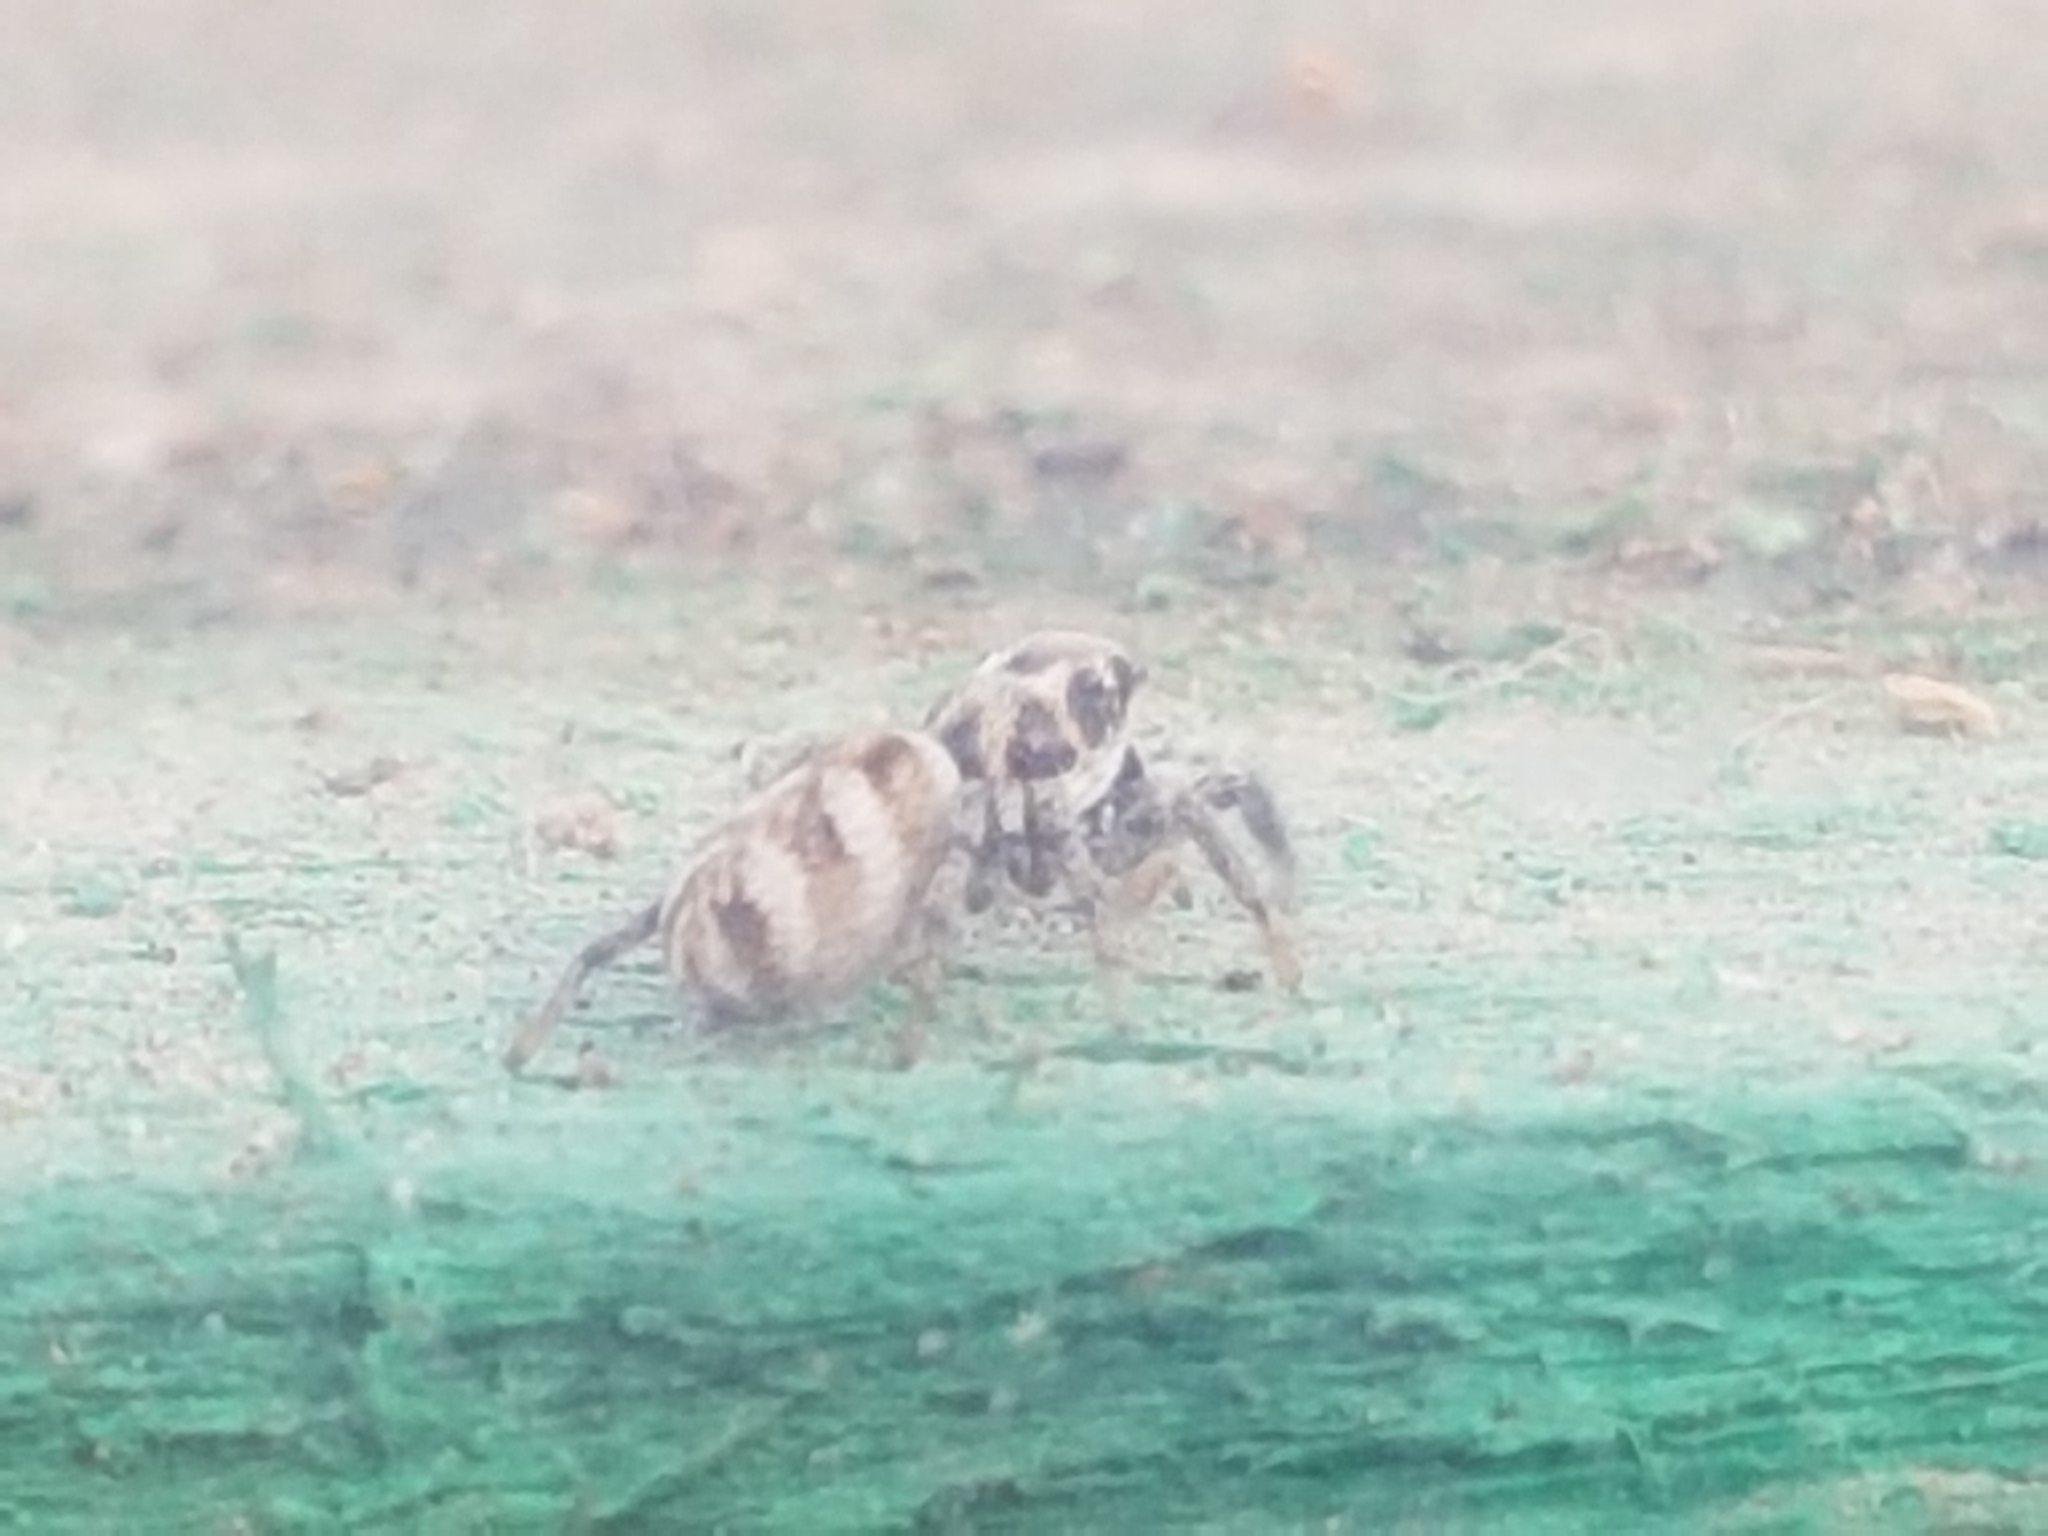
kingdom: Animalia
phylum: Arthropoda
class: Arachnida
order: Araneae
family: Salticidae
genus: Salticus
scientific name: Salticus scenicus
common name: Zebra jumper
